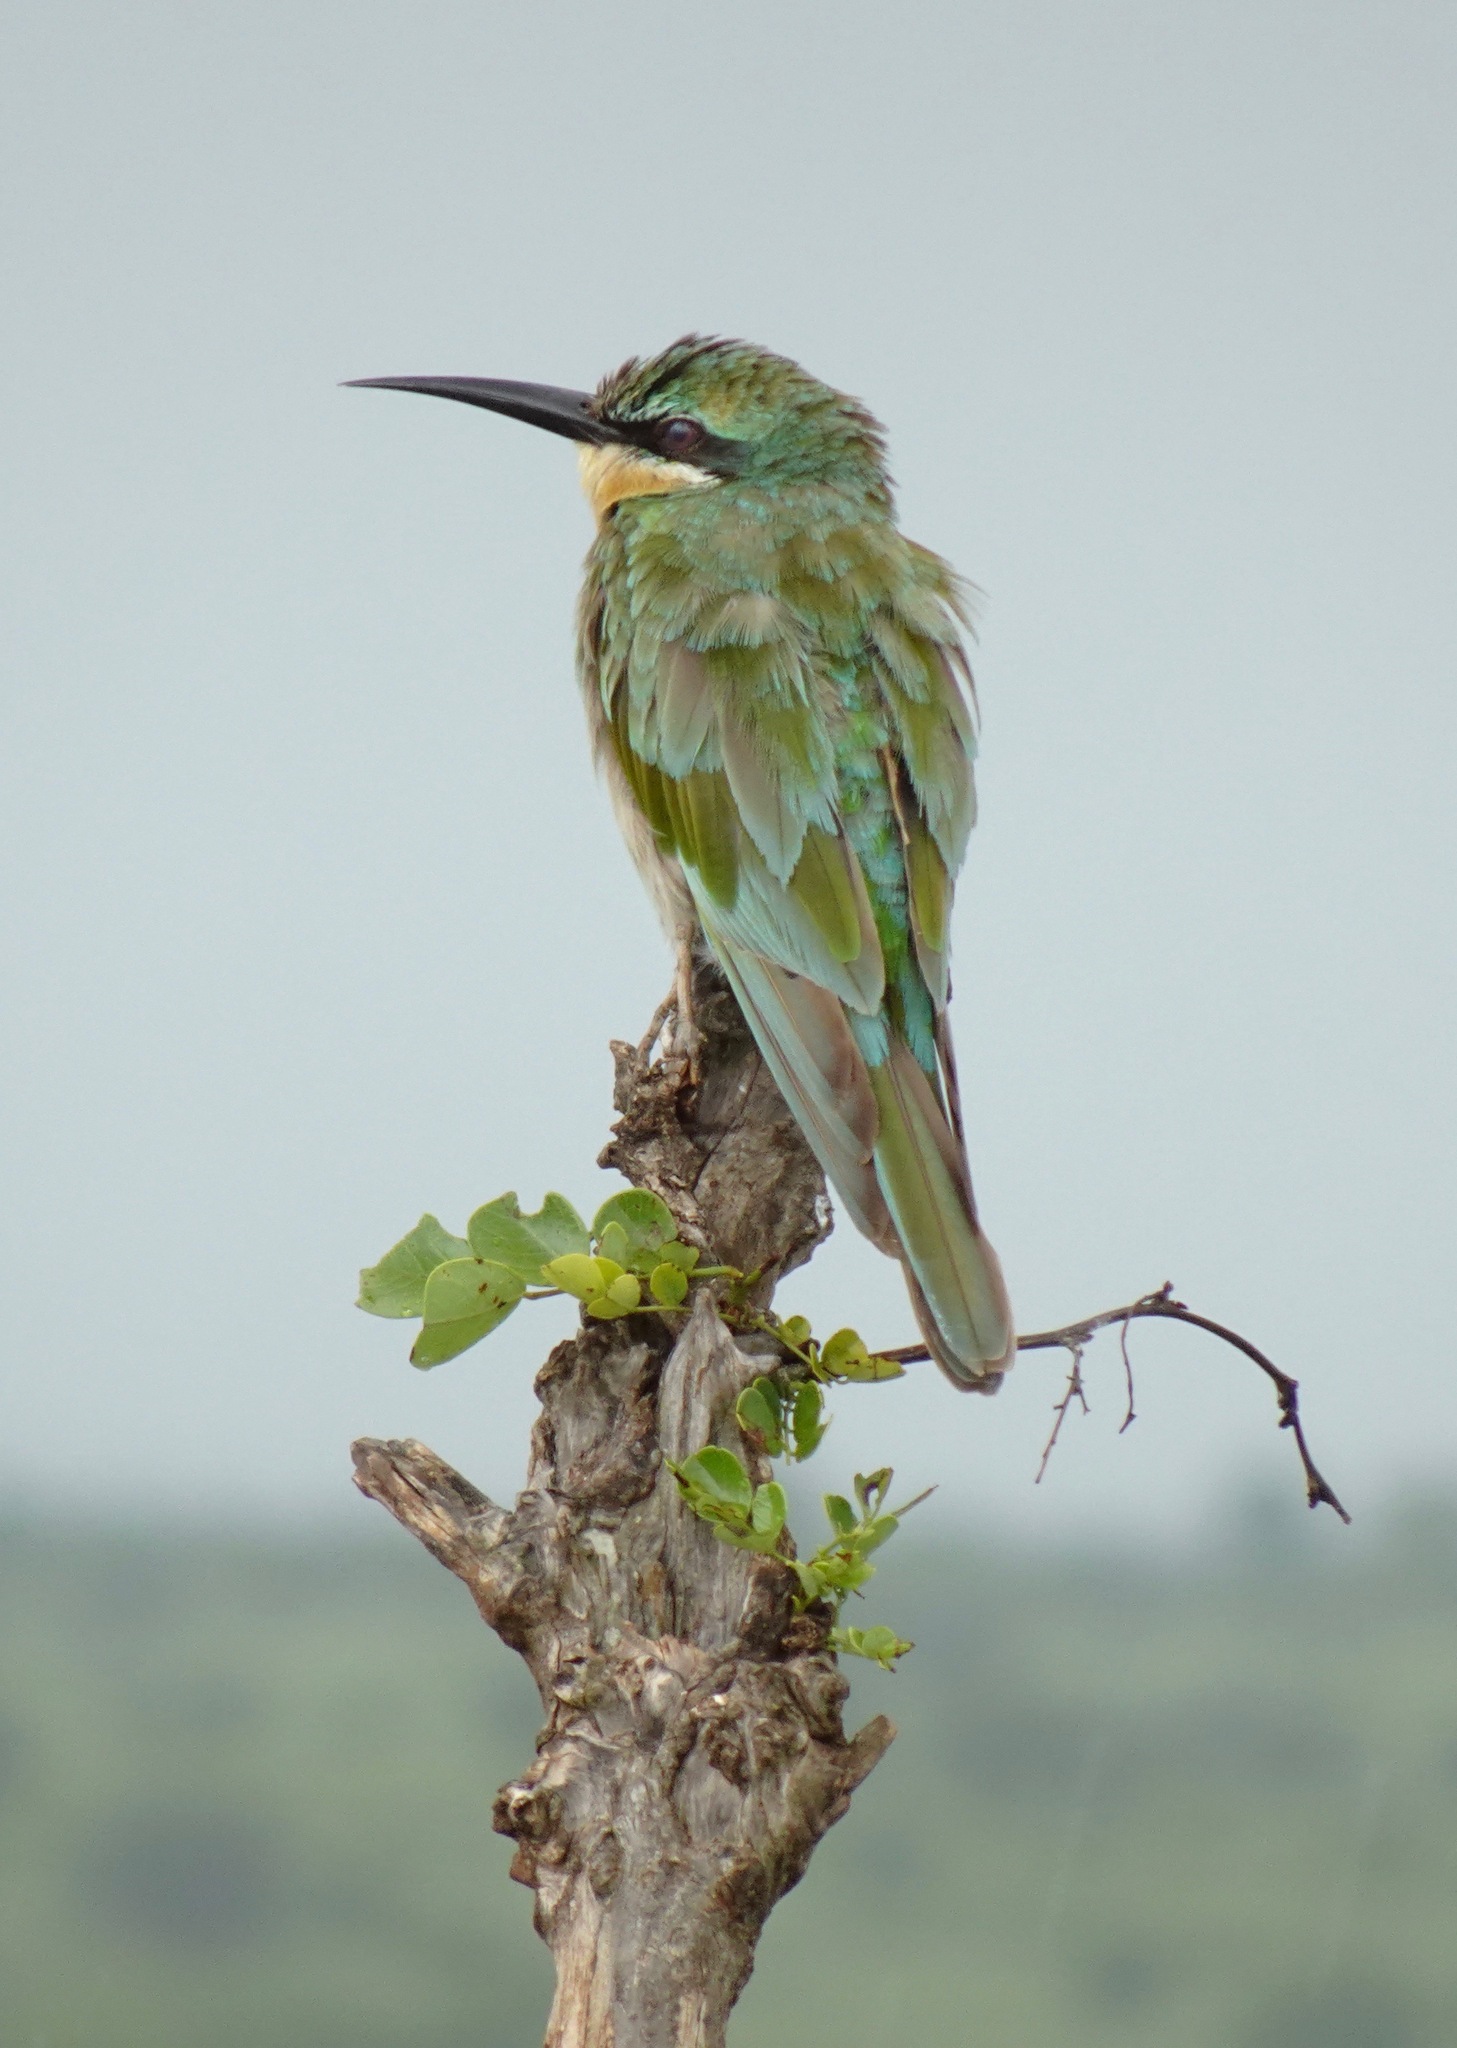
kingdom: Animalia
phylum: Chordata
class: Aves
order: Coraciiformes
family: Meropidae
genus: Merops
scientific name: Merops persicus
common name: Blue-cheeked bee-eater
